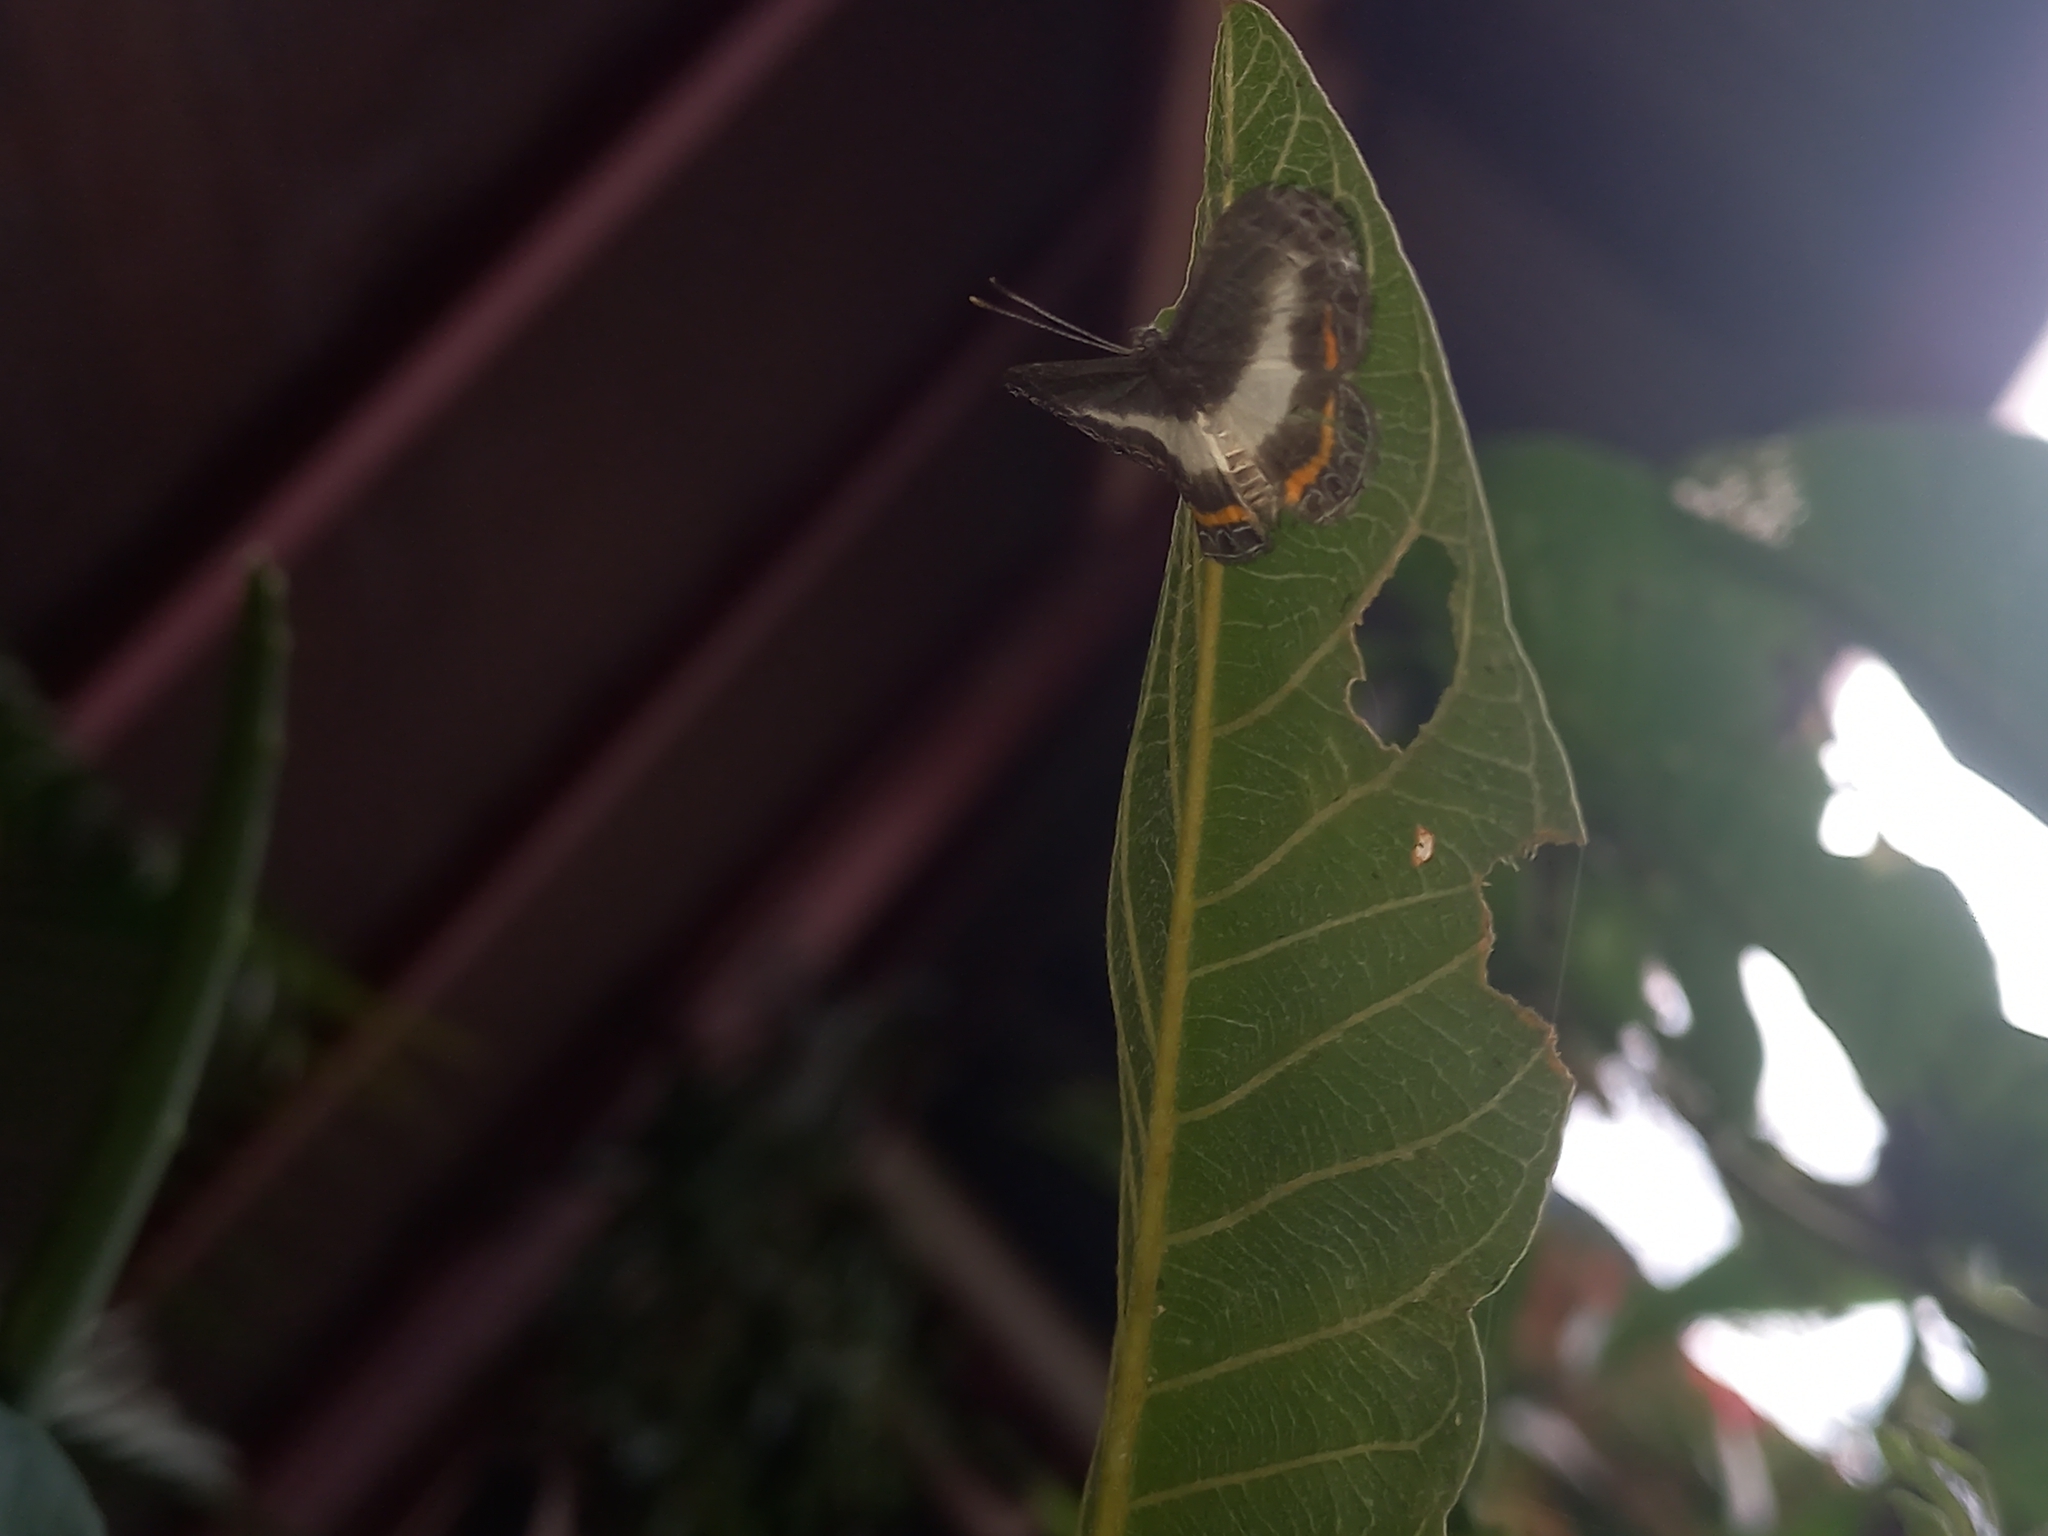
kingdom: Animalia
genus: Nymphidium
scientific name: Nymphidium azanoides
